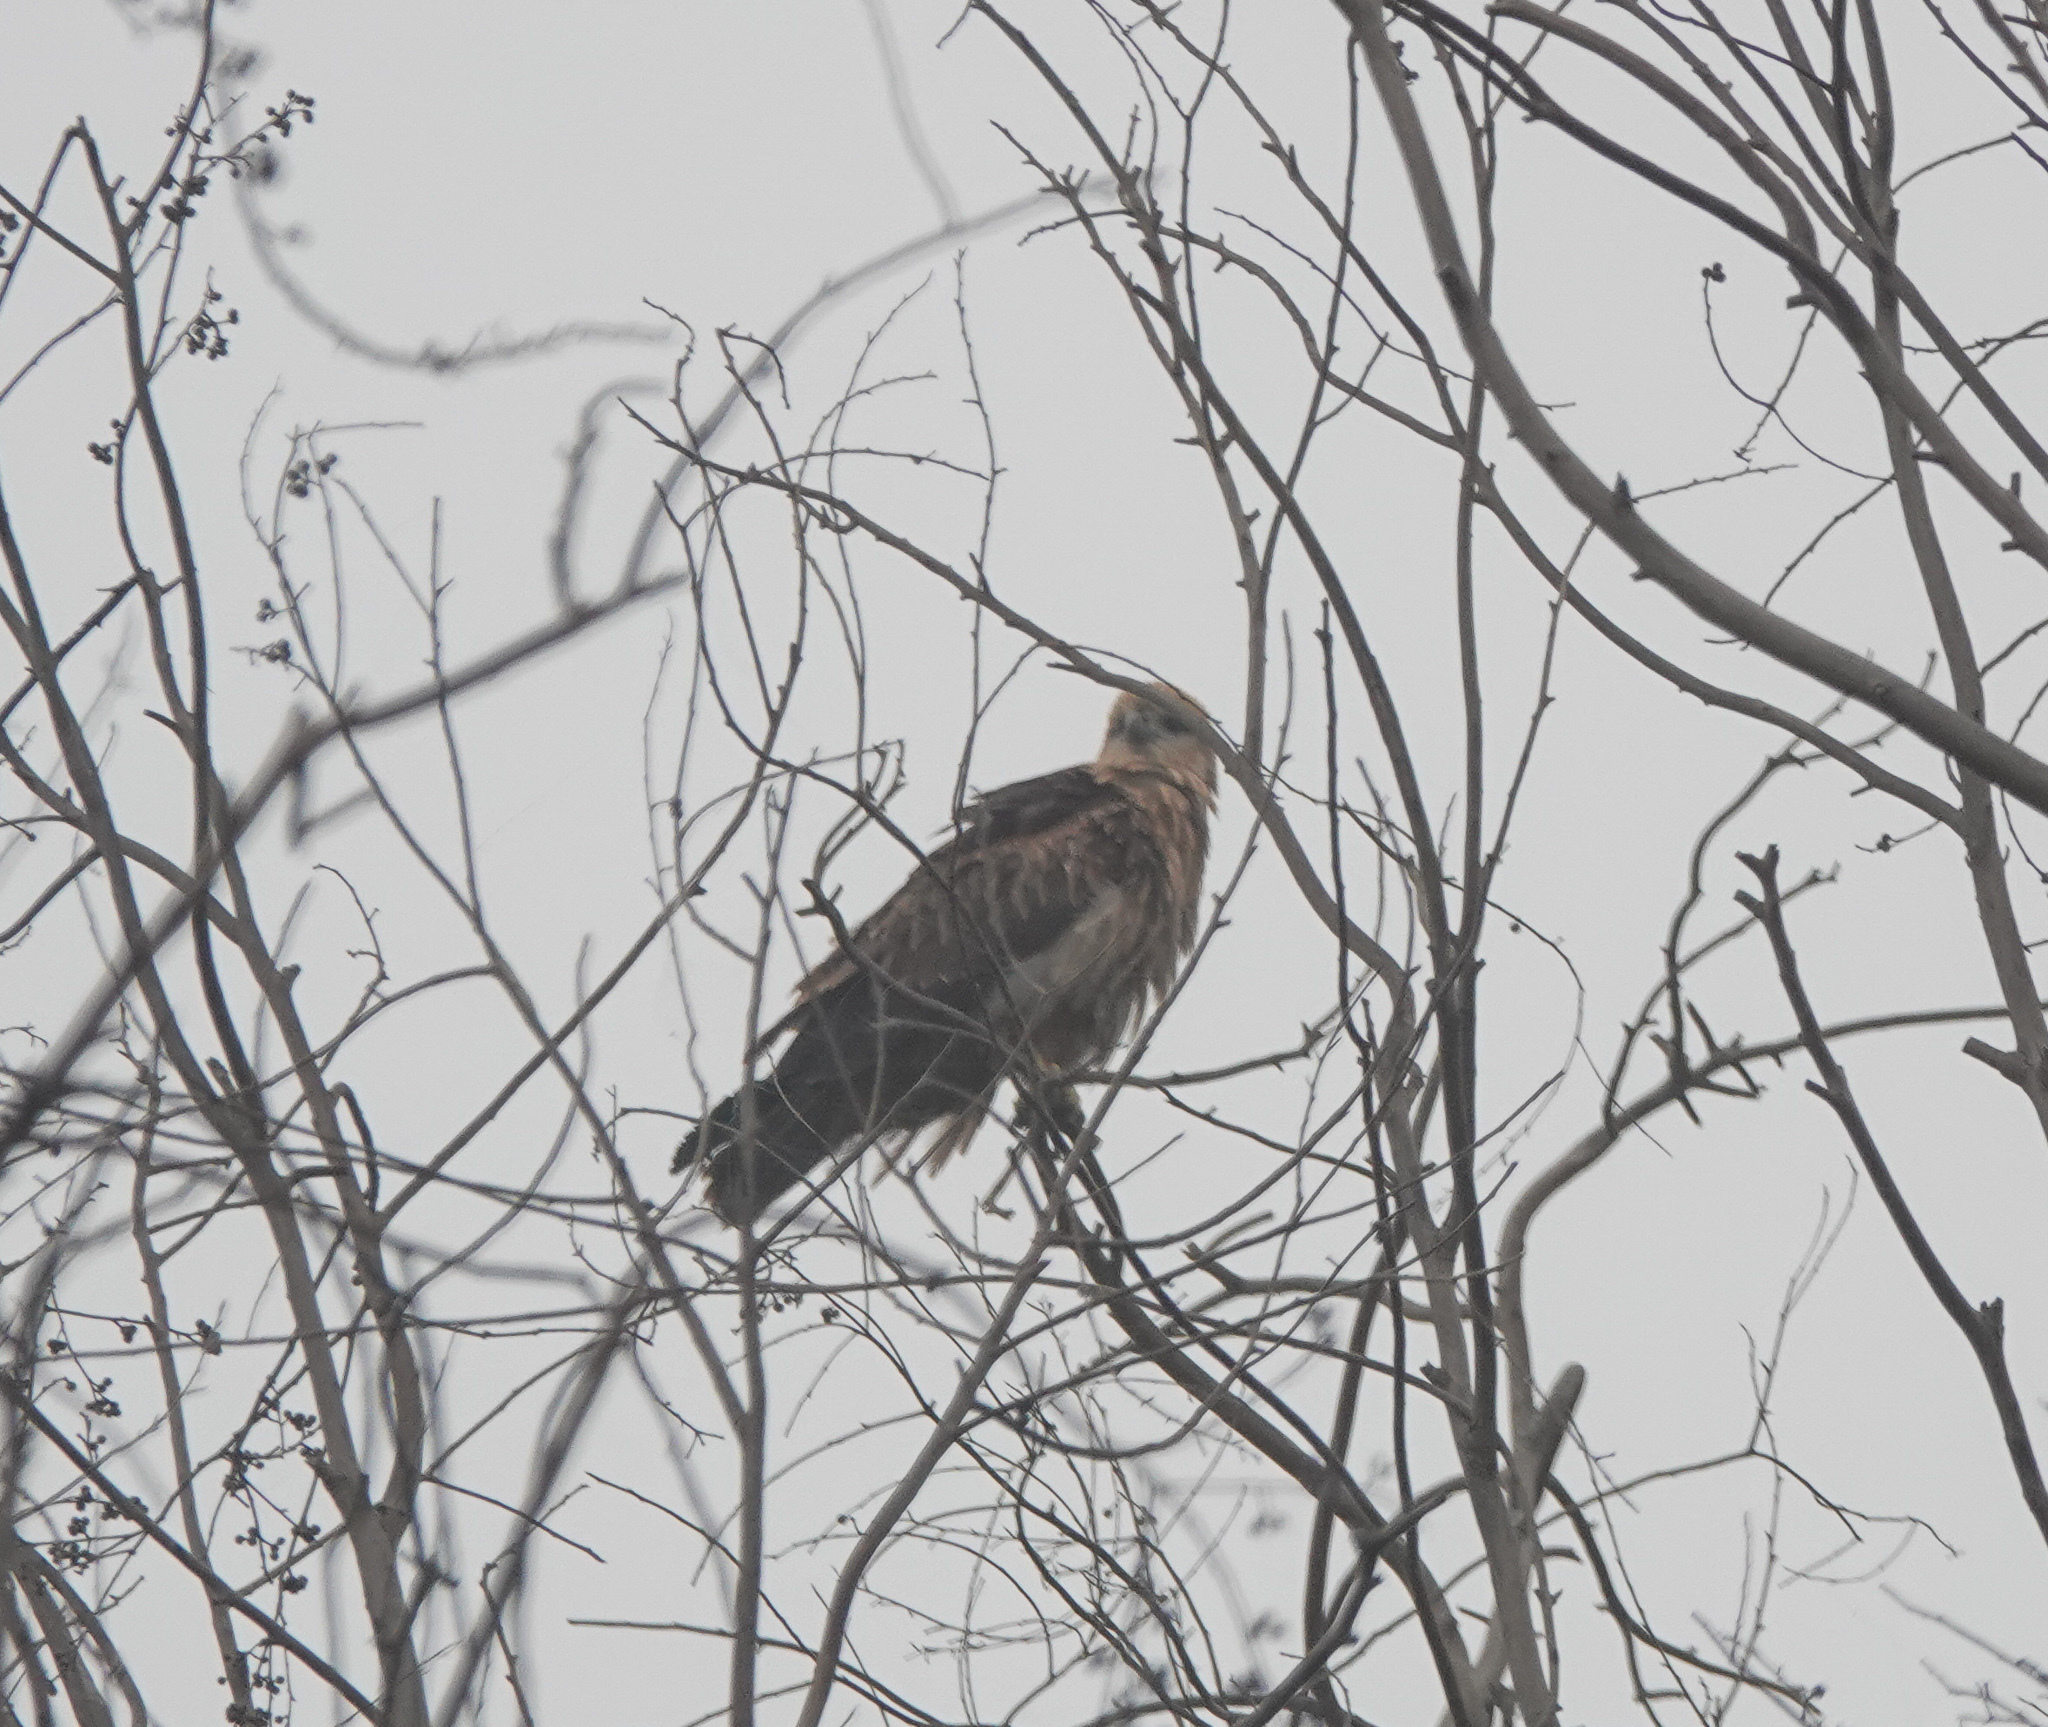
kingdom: Animalia
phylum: Chordata
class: Aves
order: Accipitriformes
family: Accipitridae
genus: Haliastur
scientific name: Haliastur indus
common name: Brahminy kite
